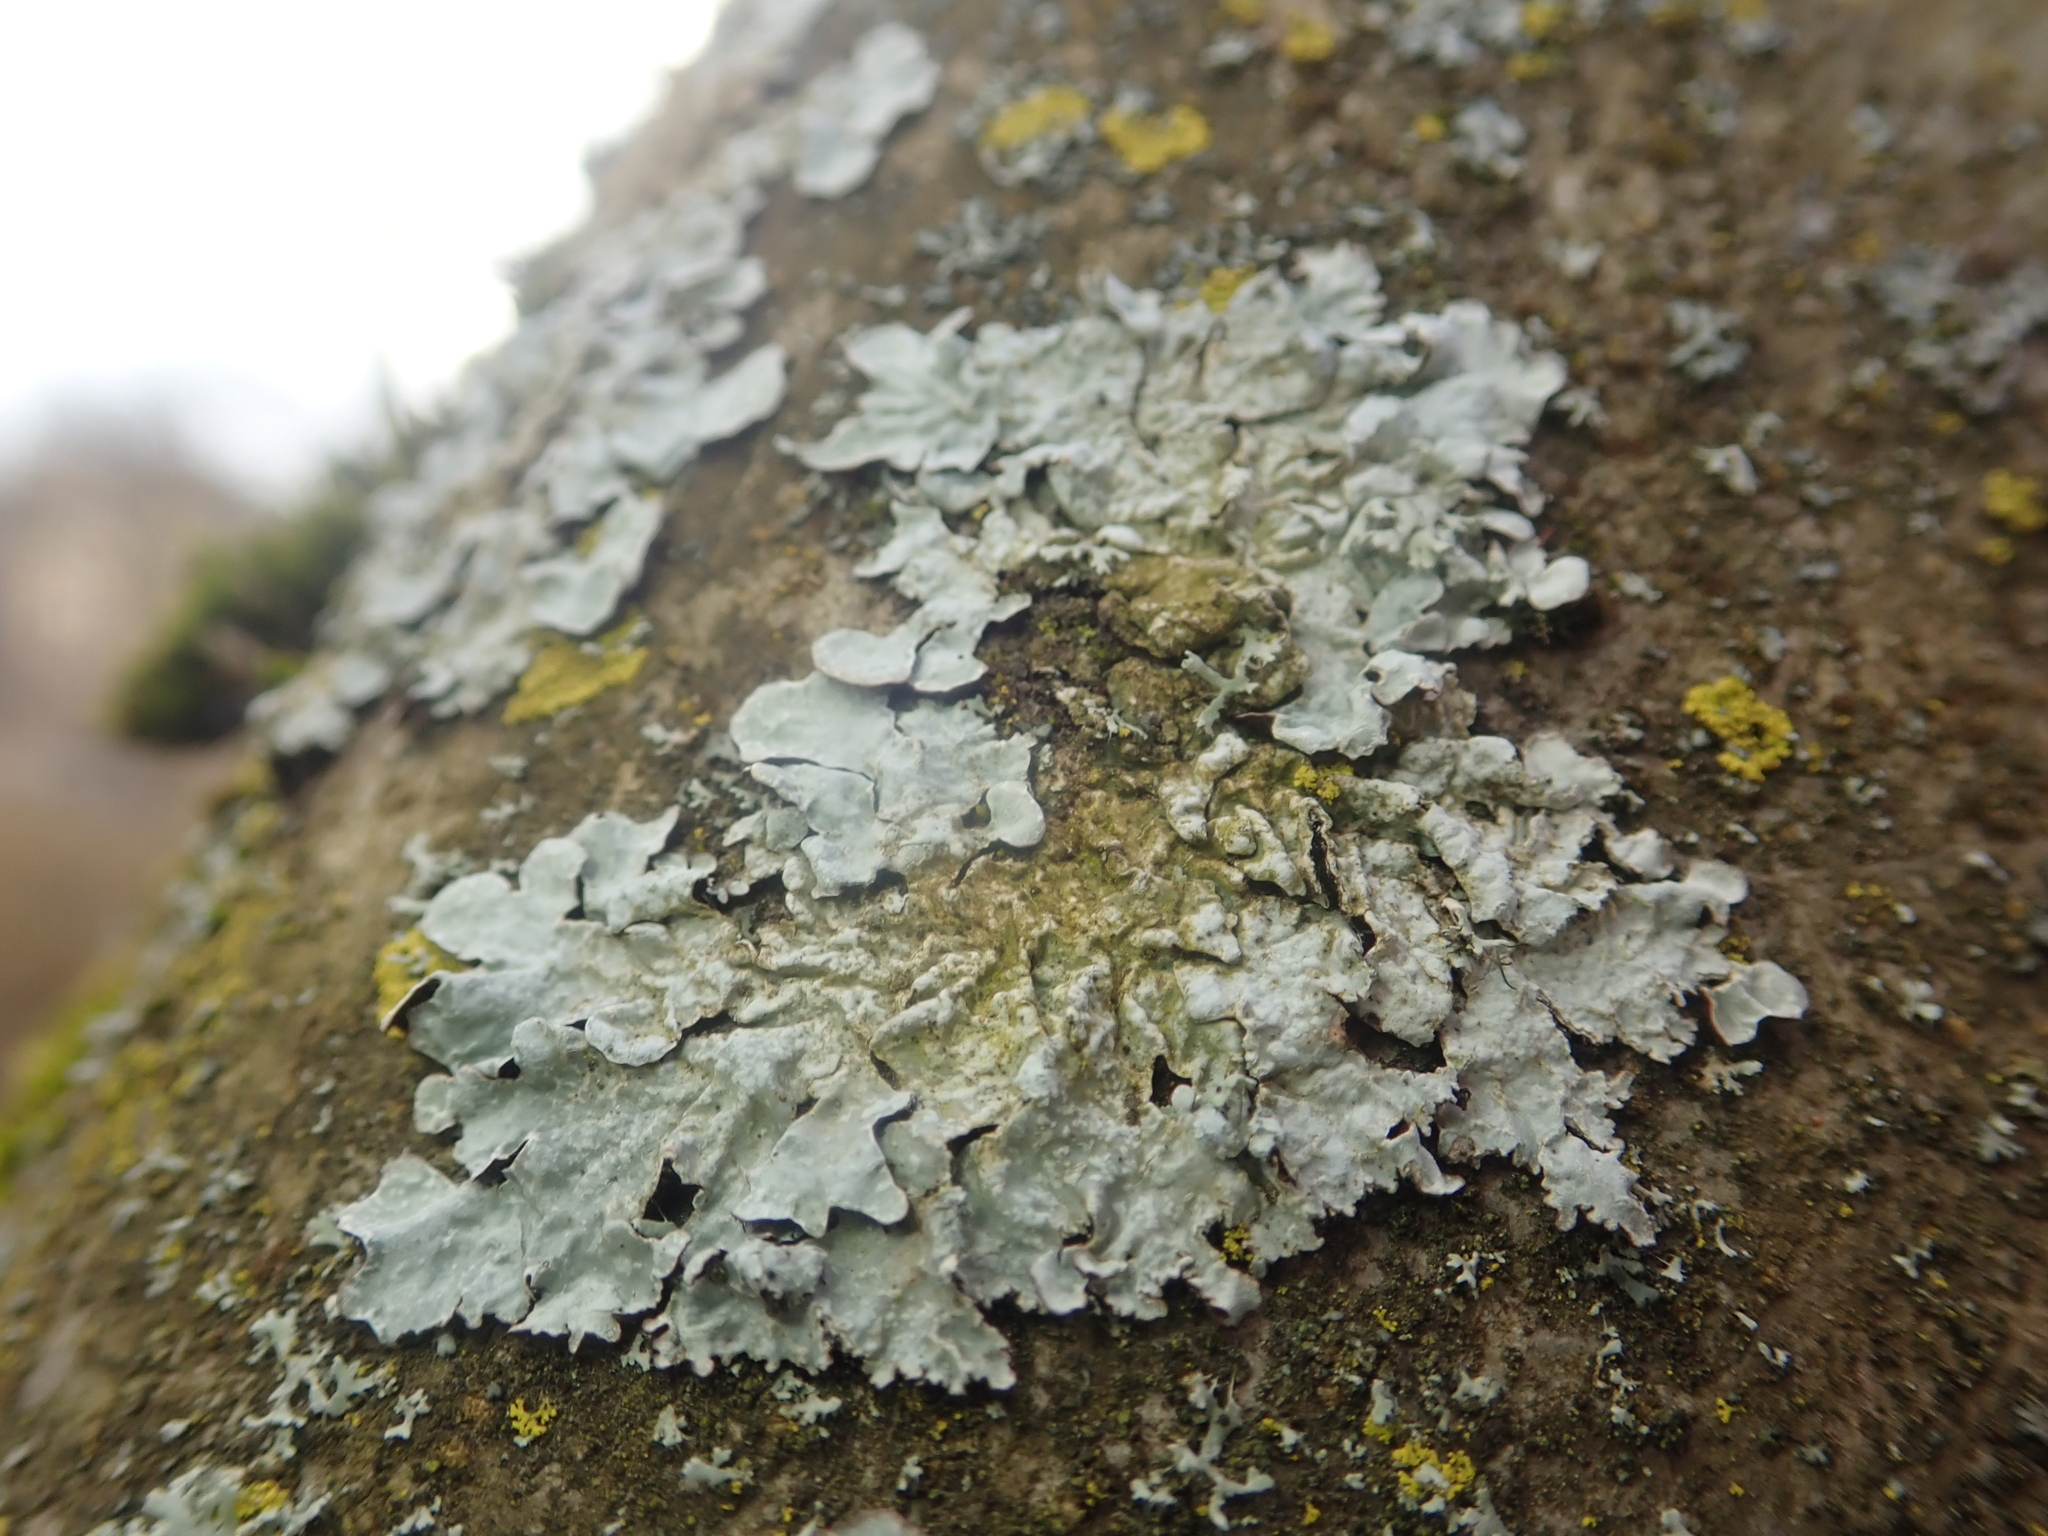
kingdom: Fungi
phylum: Ascomycota
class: Lecanoromycetes
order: Lecanorales
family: Parmeliaceae
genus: Parmelia
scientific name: Parmelia sulcata
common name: Netted shield lichen
